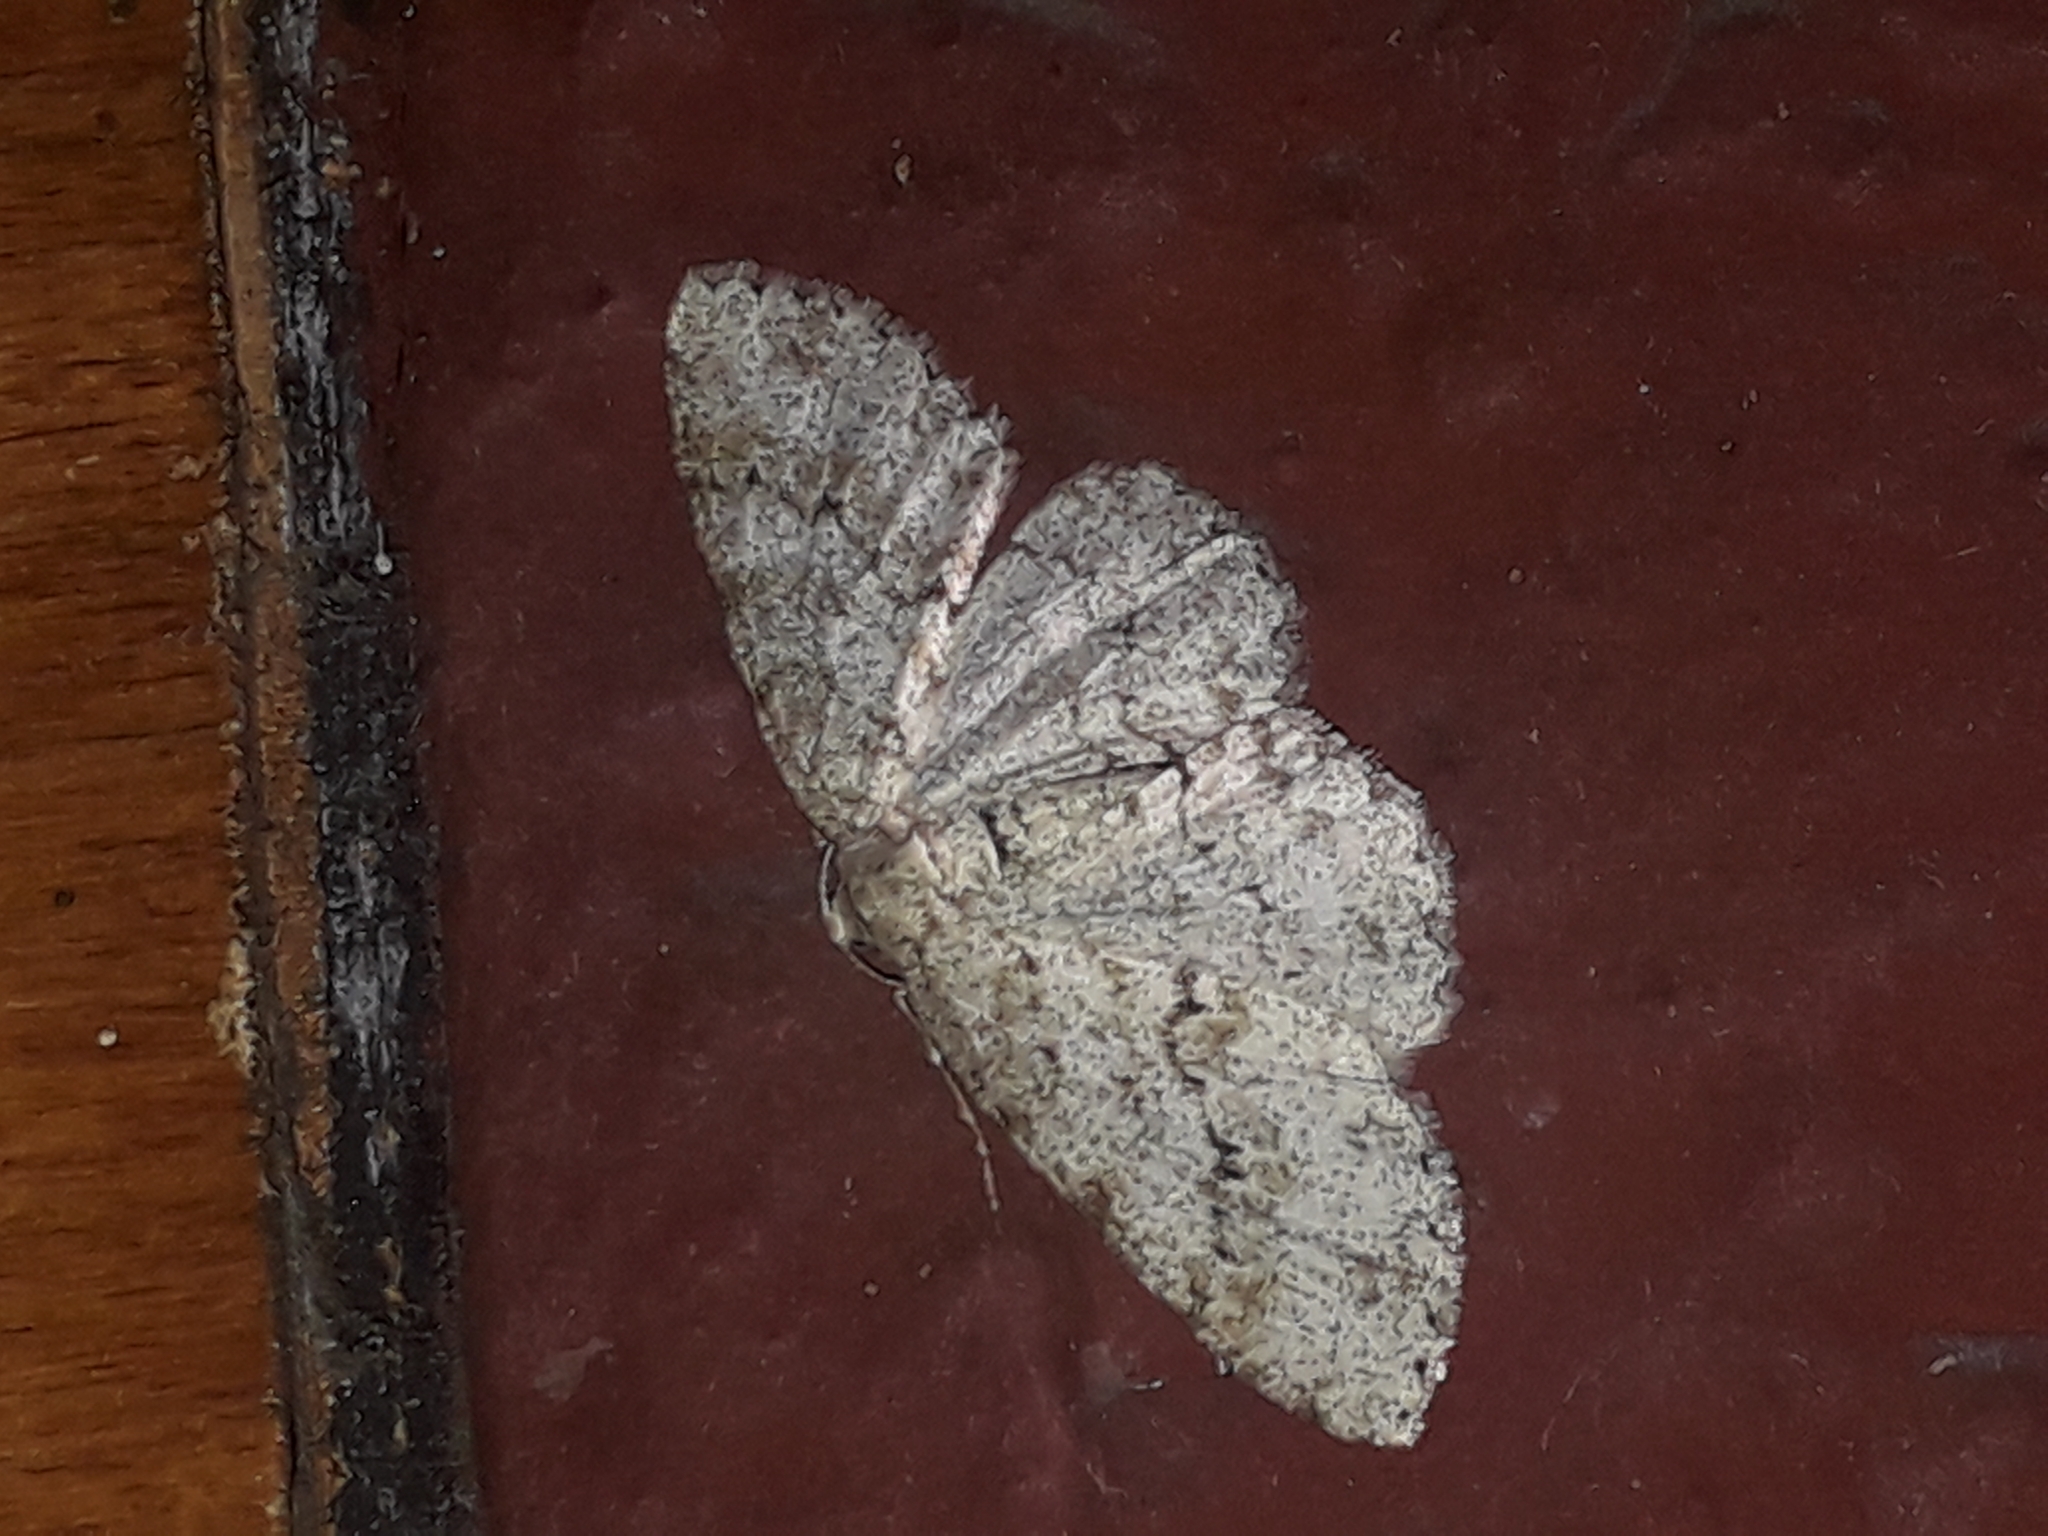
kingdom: Animalia
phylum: Arthropoda
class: Insecta
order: Lepidoptera
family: Geometridae
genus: Ectropis
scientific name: Ectropis crepuscularia
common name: Engrailed
